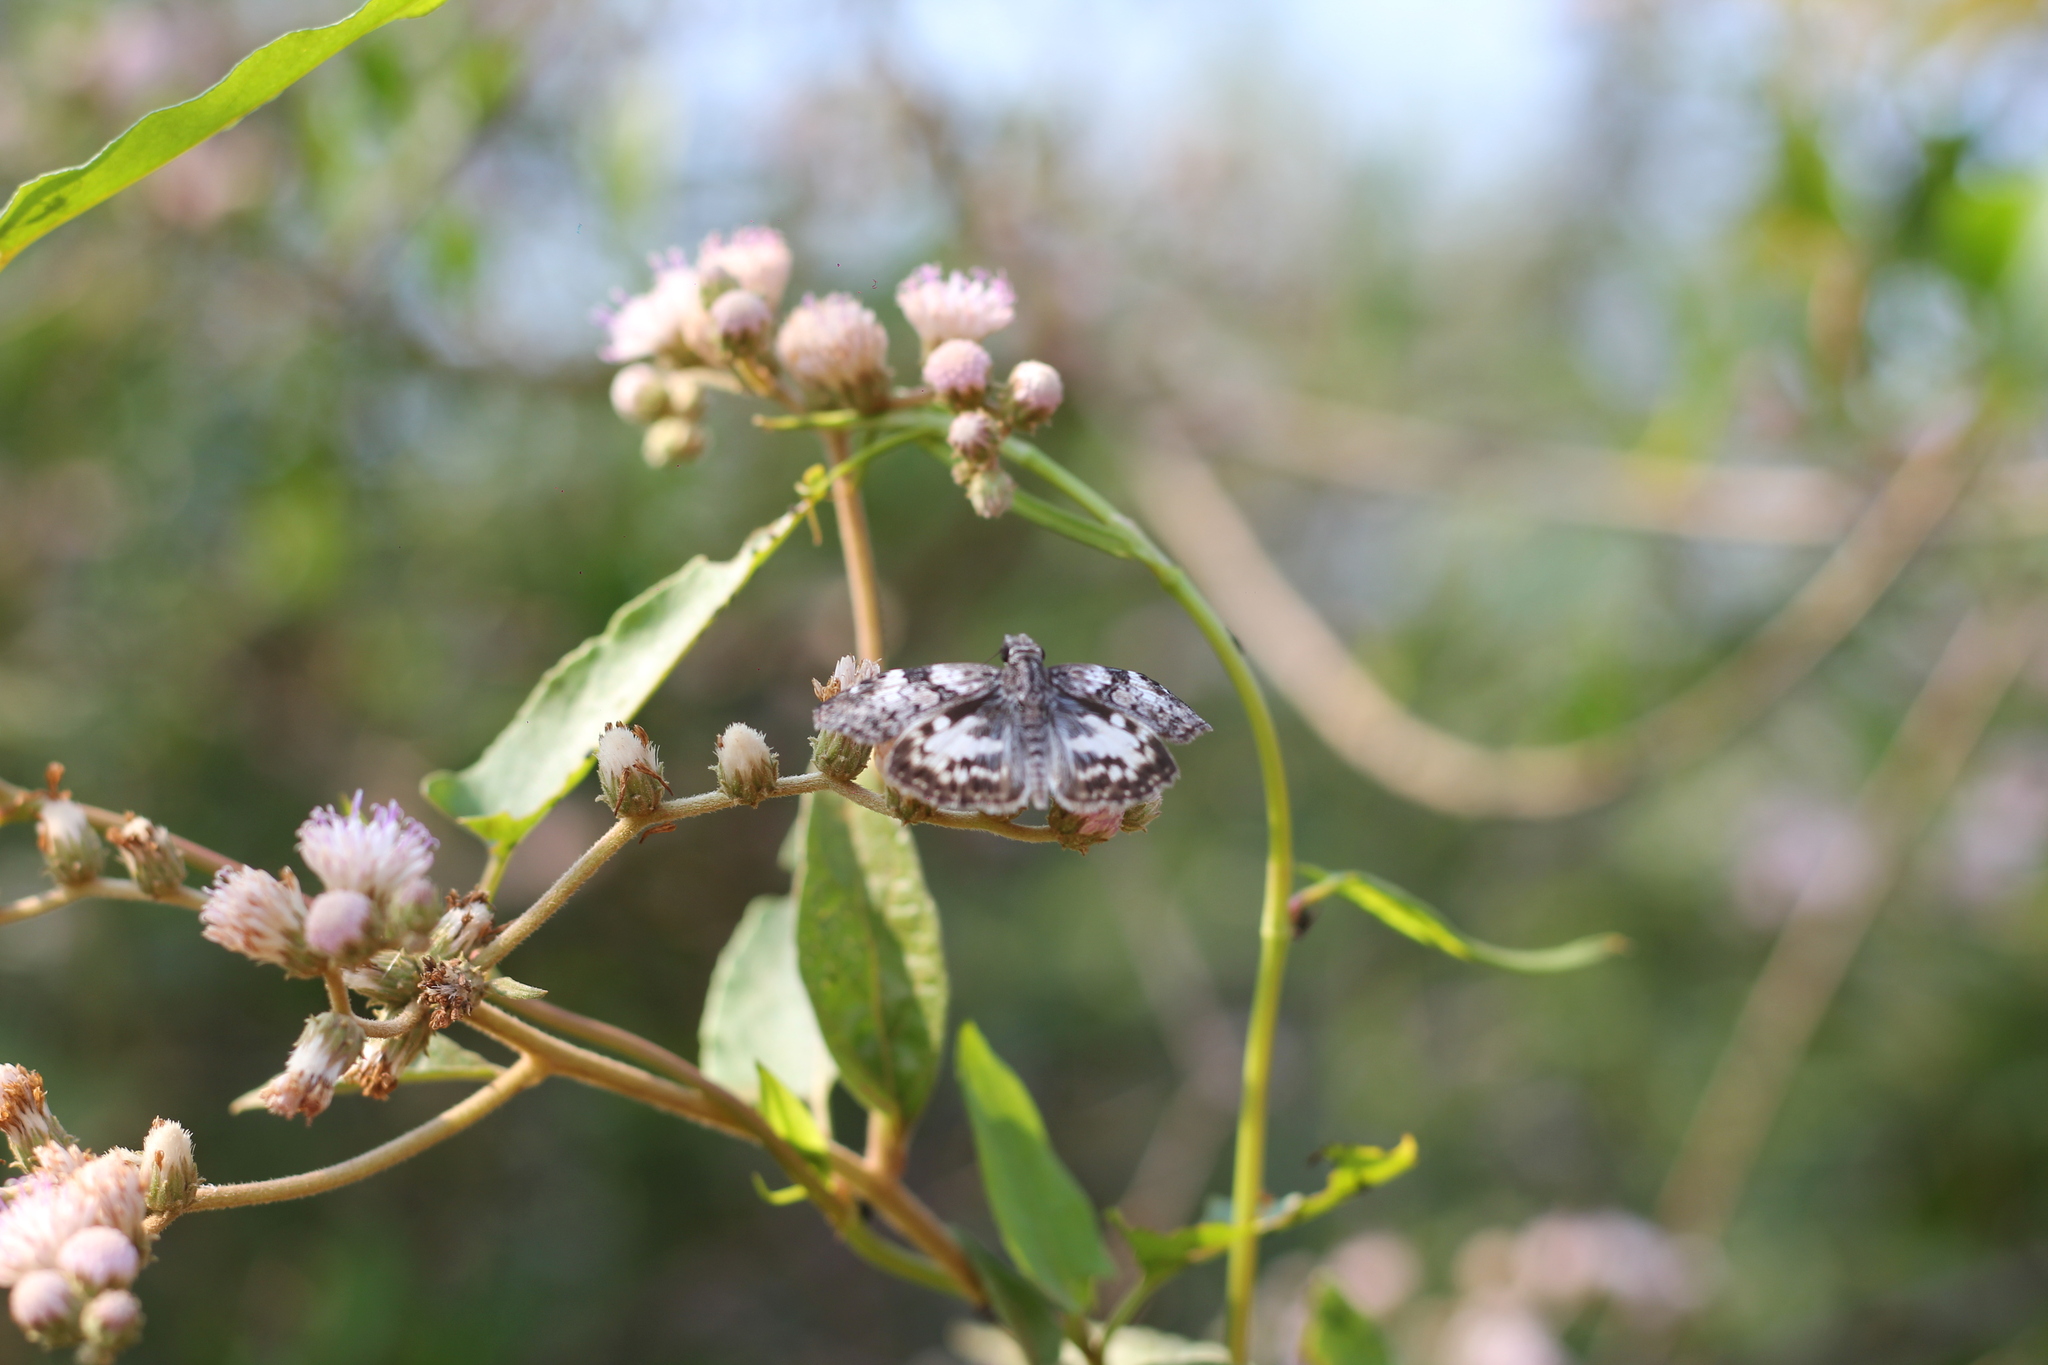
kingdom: Animalia
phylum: Arthropoda
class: Insecta
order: Lepidoptera
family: Hesperiidae
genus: Chiomara
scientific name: Chiomara asychis
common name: White-patterned skipper
